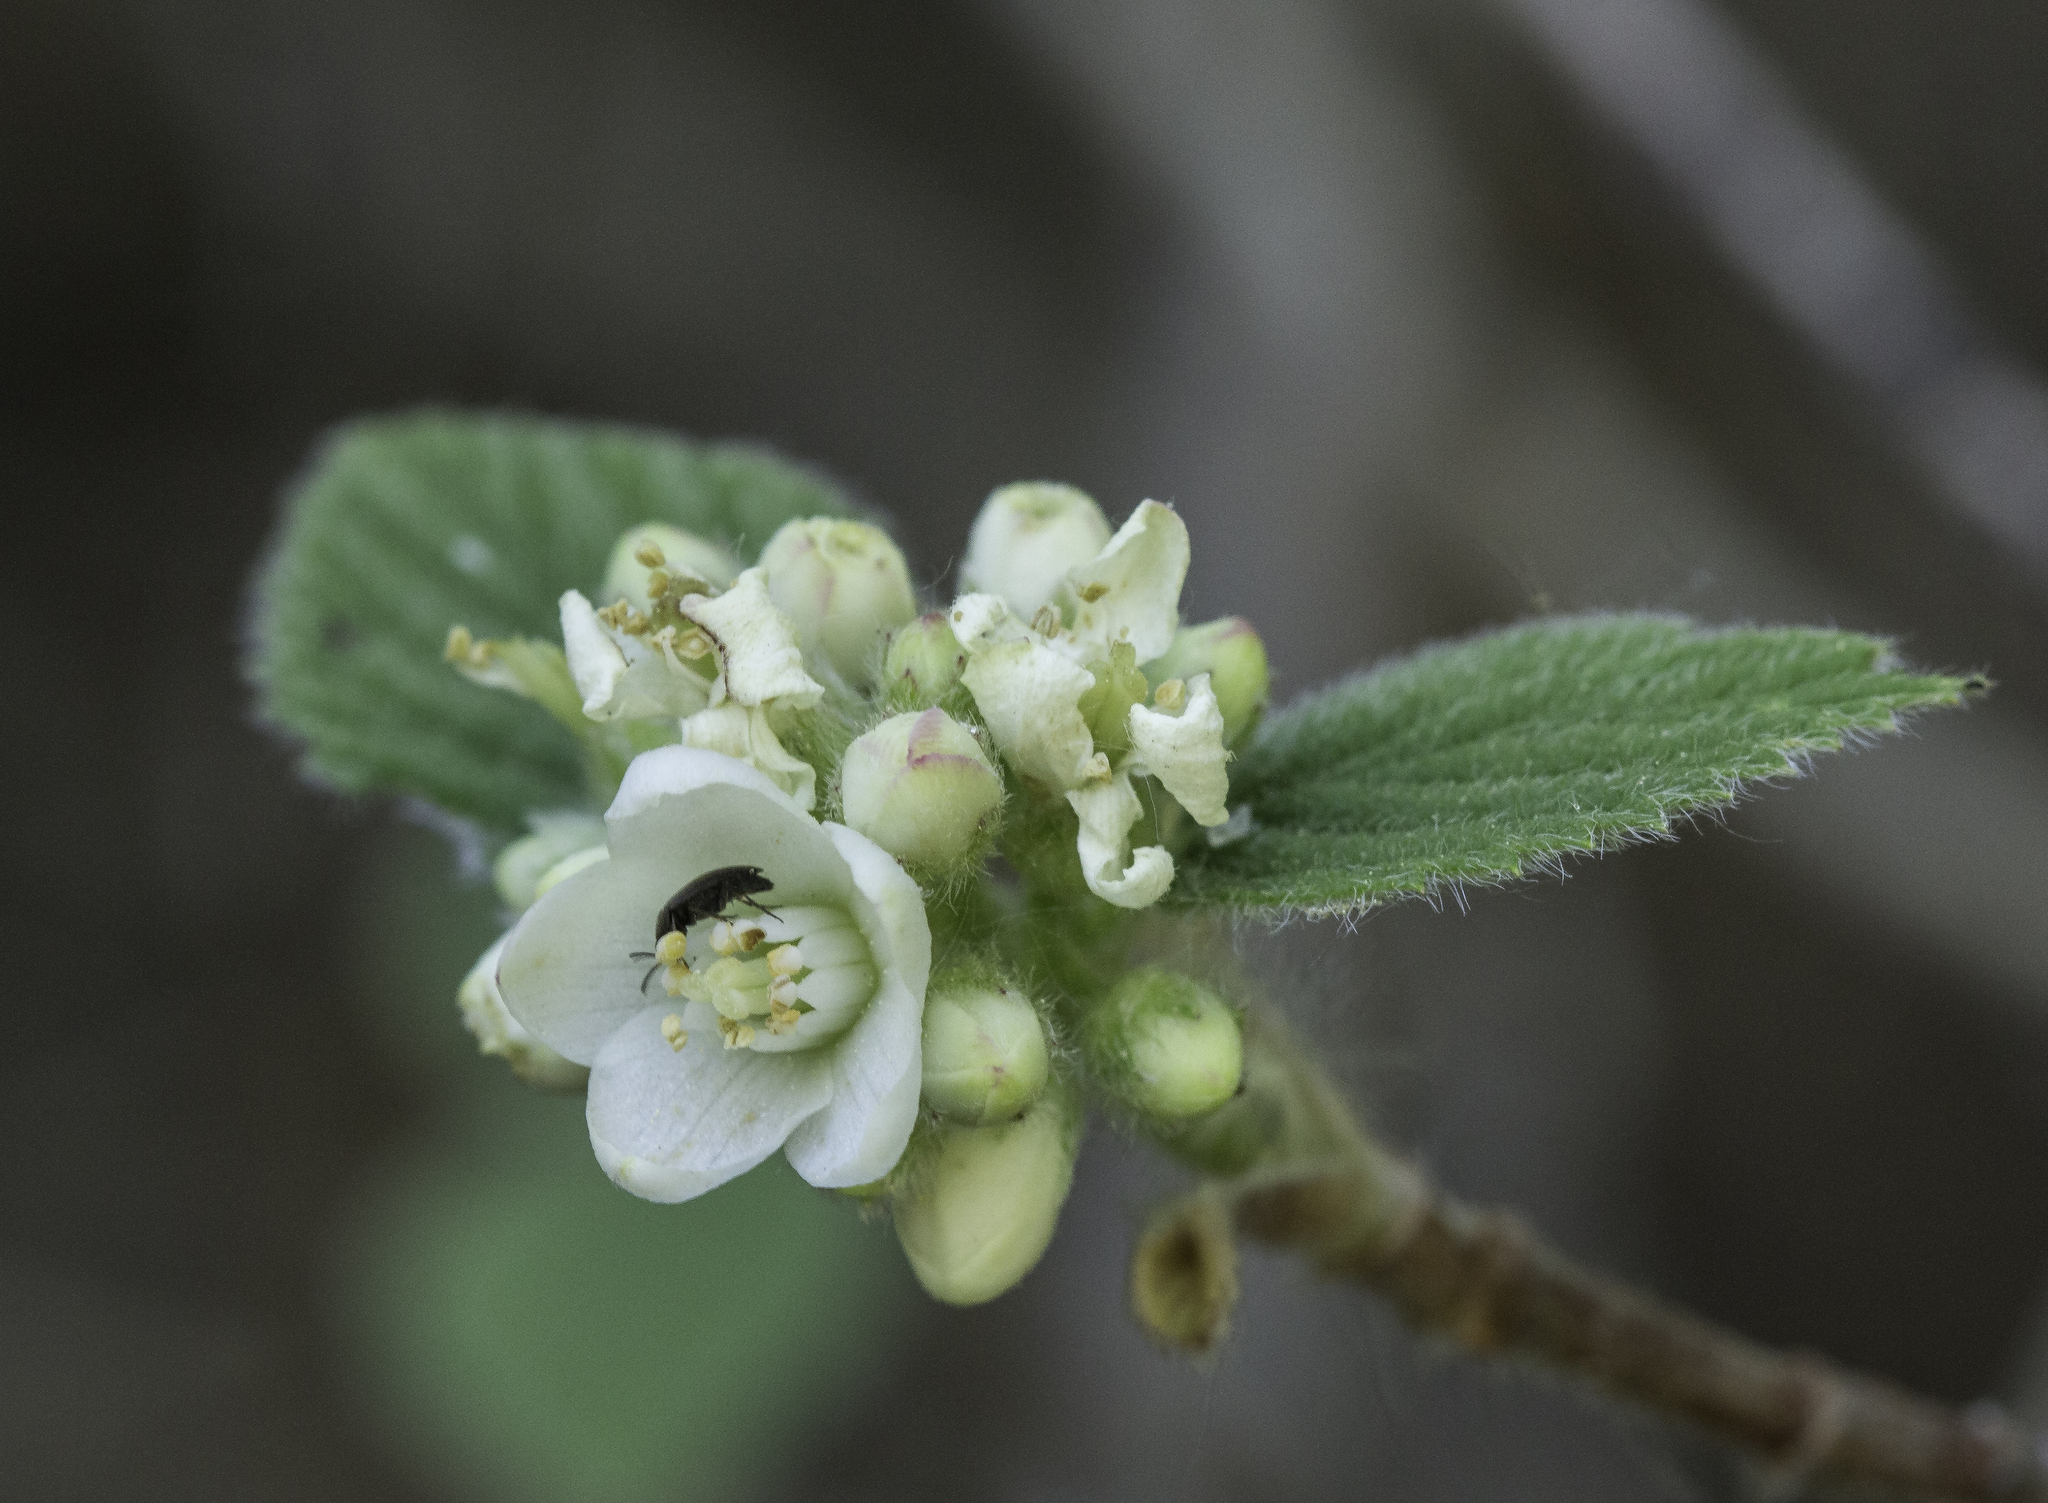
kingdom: Plantae
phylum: Tracheophyta
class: Magnoliopsida
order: Cornales
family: Hydrangeaceae
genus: Jamesia
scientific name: Jamesia americana
